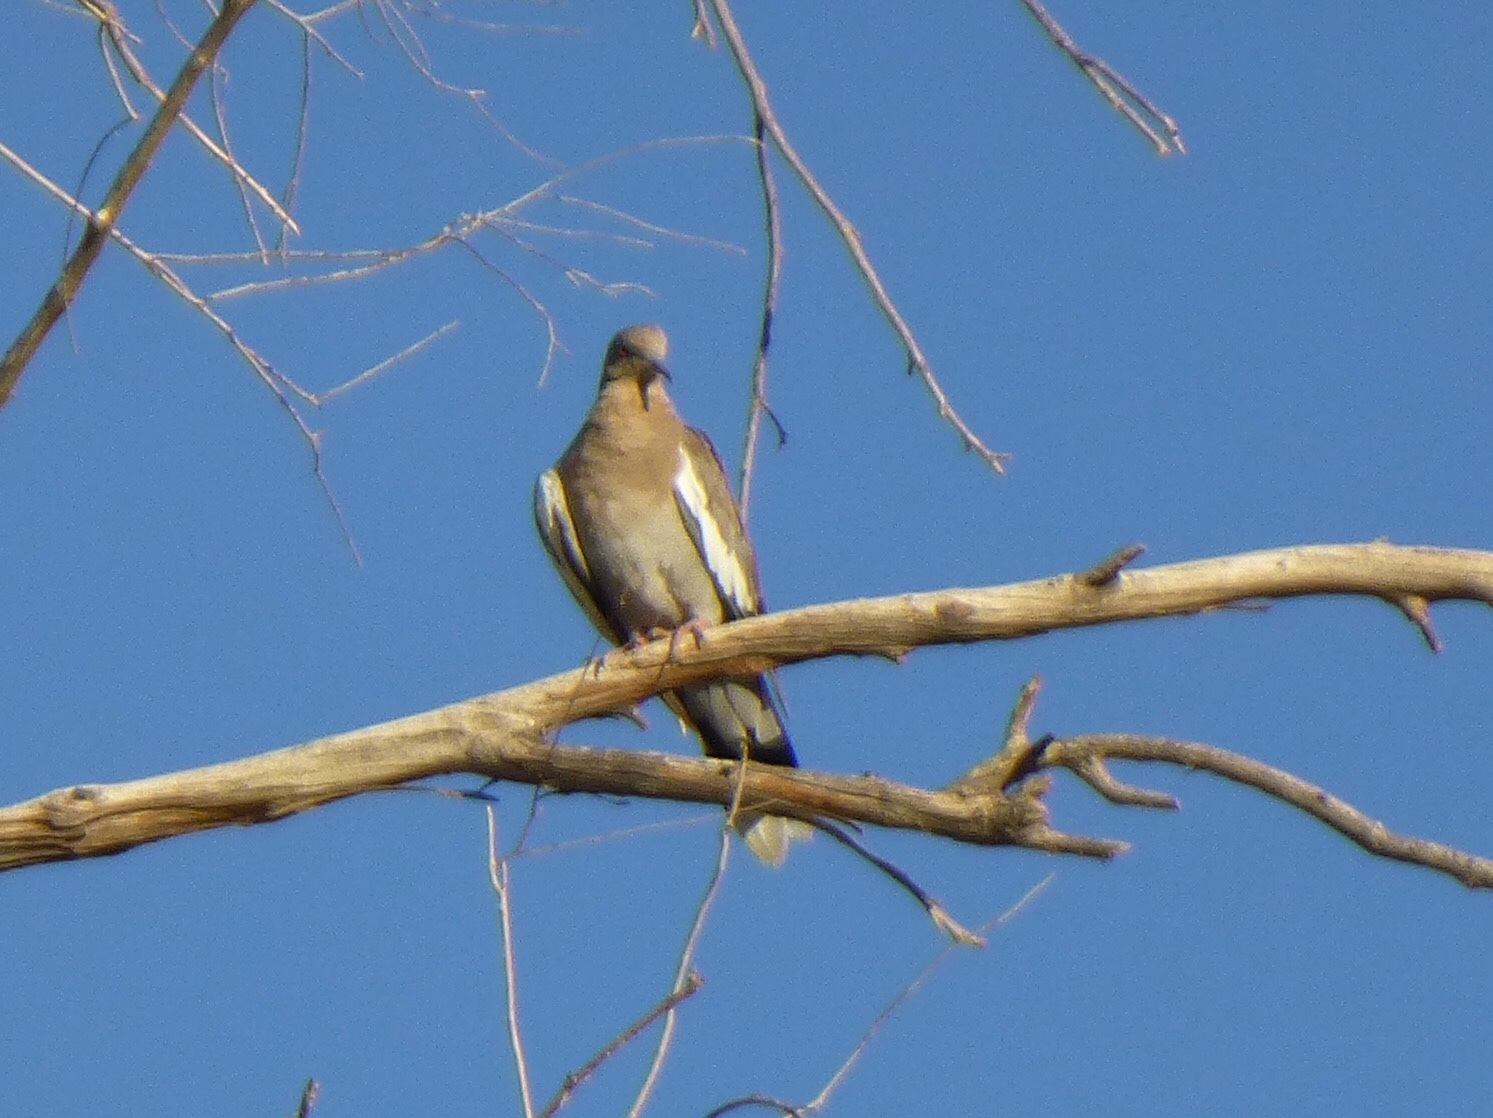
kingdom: Animalia
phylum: Chordata
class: Aves
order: Columbiformes
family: Columbidae
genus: Zenaida
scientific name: Zenaida asiatica
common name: White-winged dove
